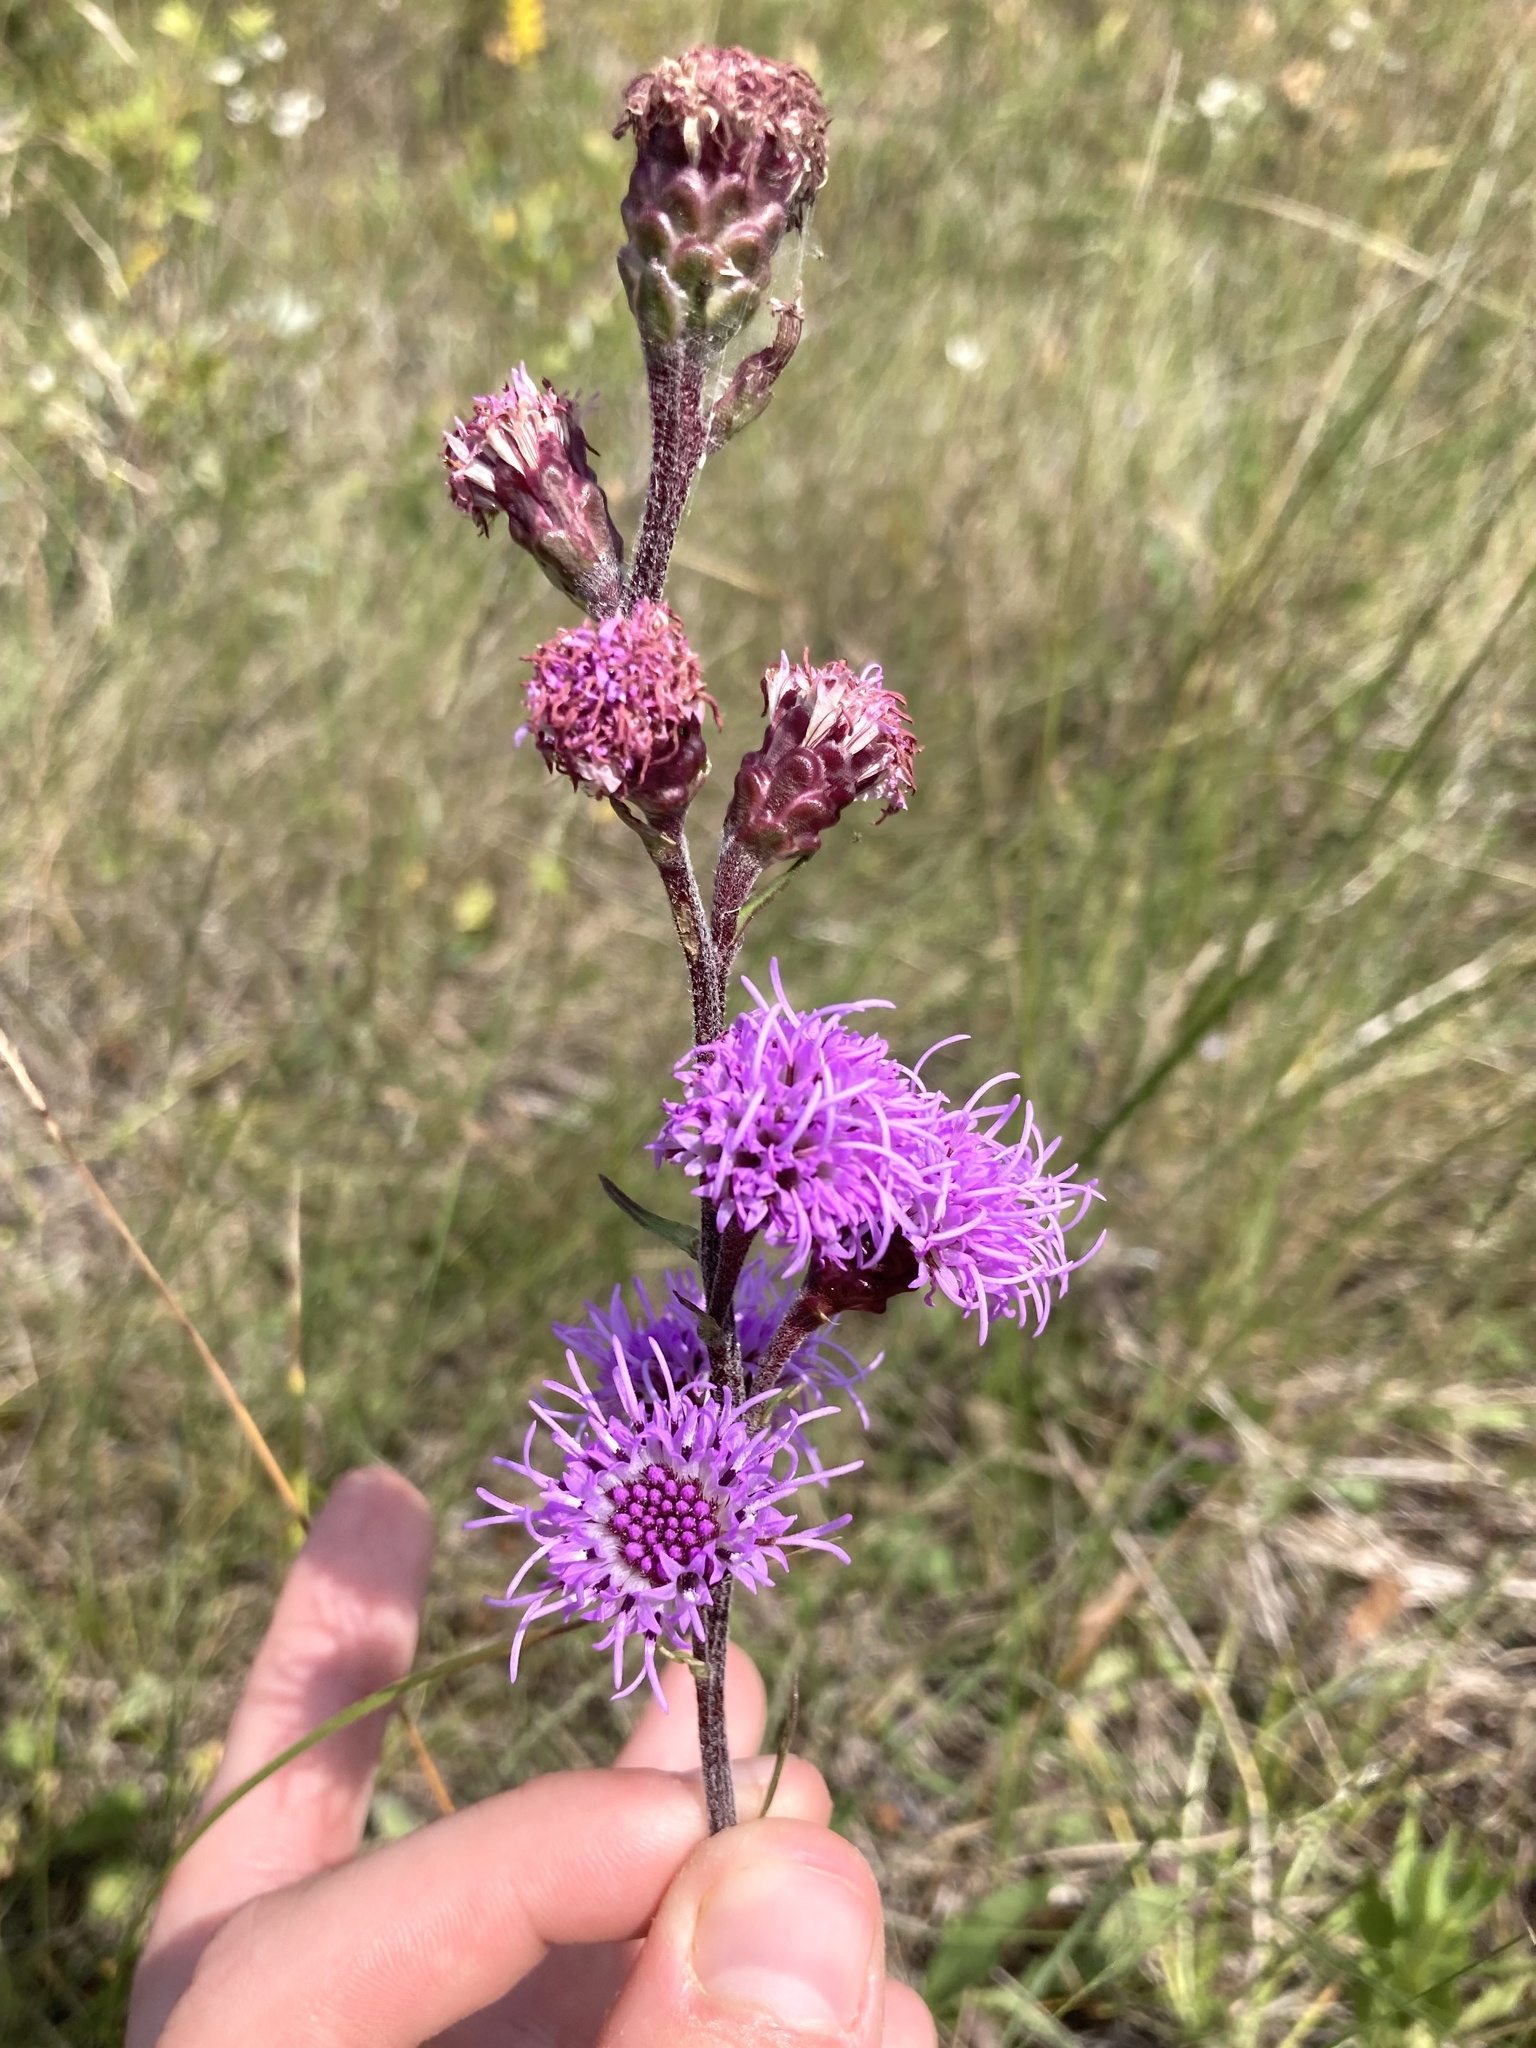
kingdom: Plantae
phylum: Tracheophyta
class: Magnoliopsida
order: Asterales
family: Asteraceae
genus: Liatris
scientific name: Liatris ligulistylis
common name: Northern plains gayfeather
